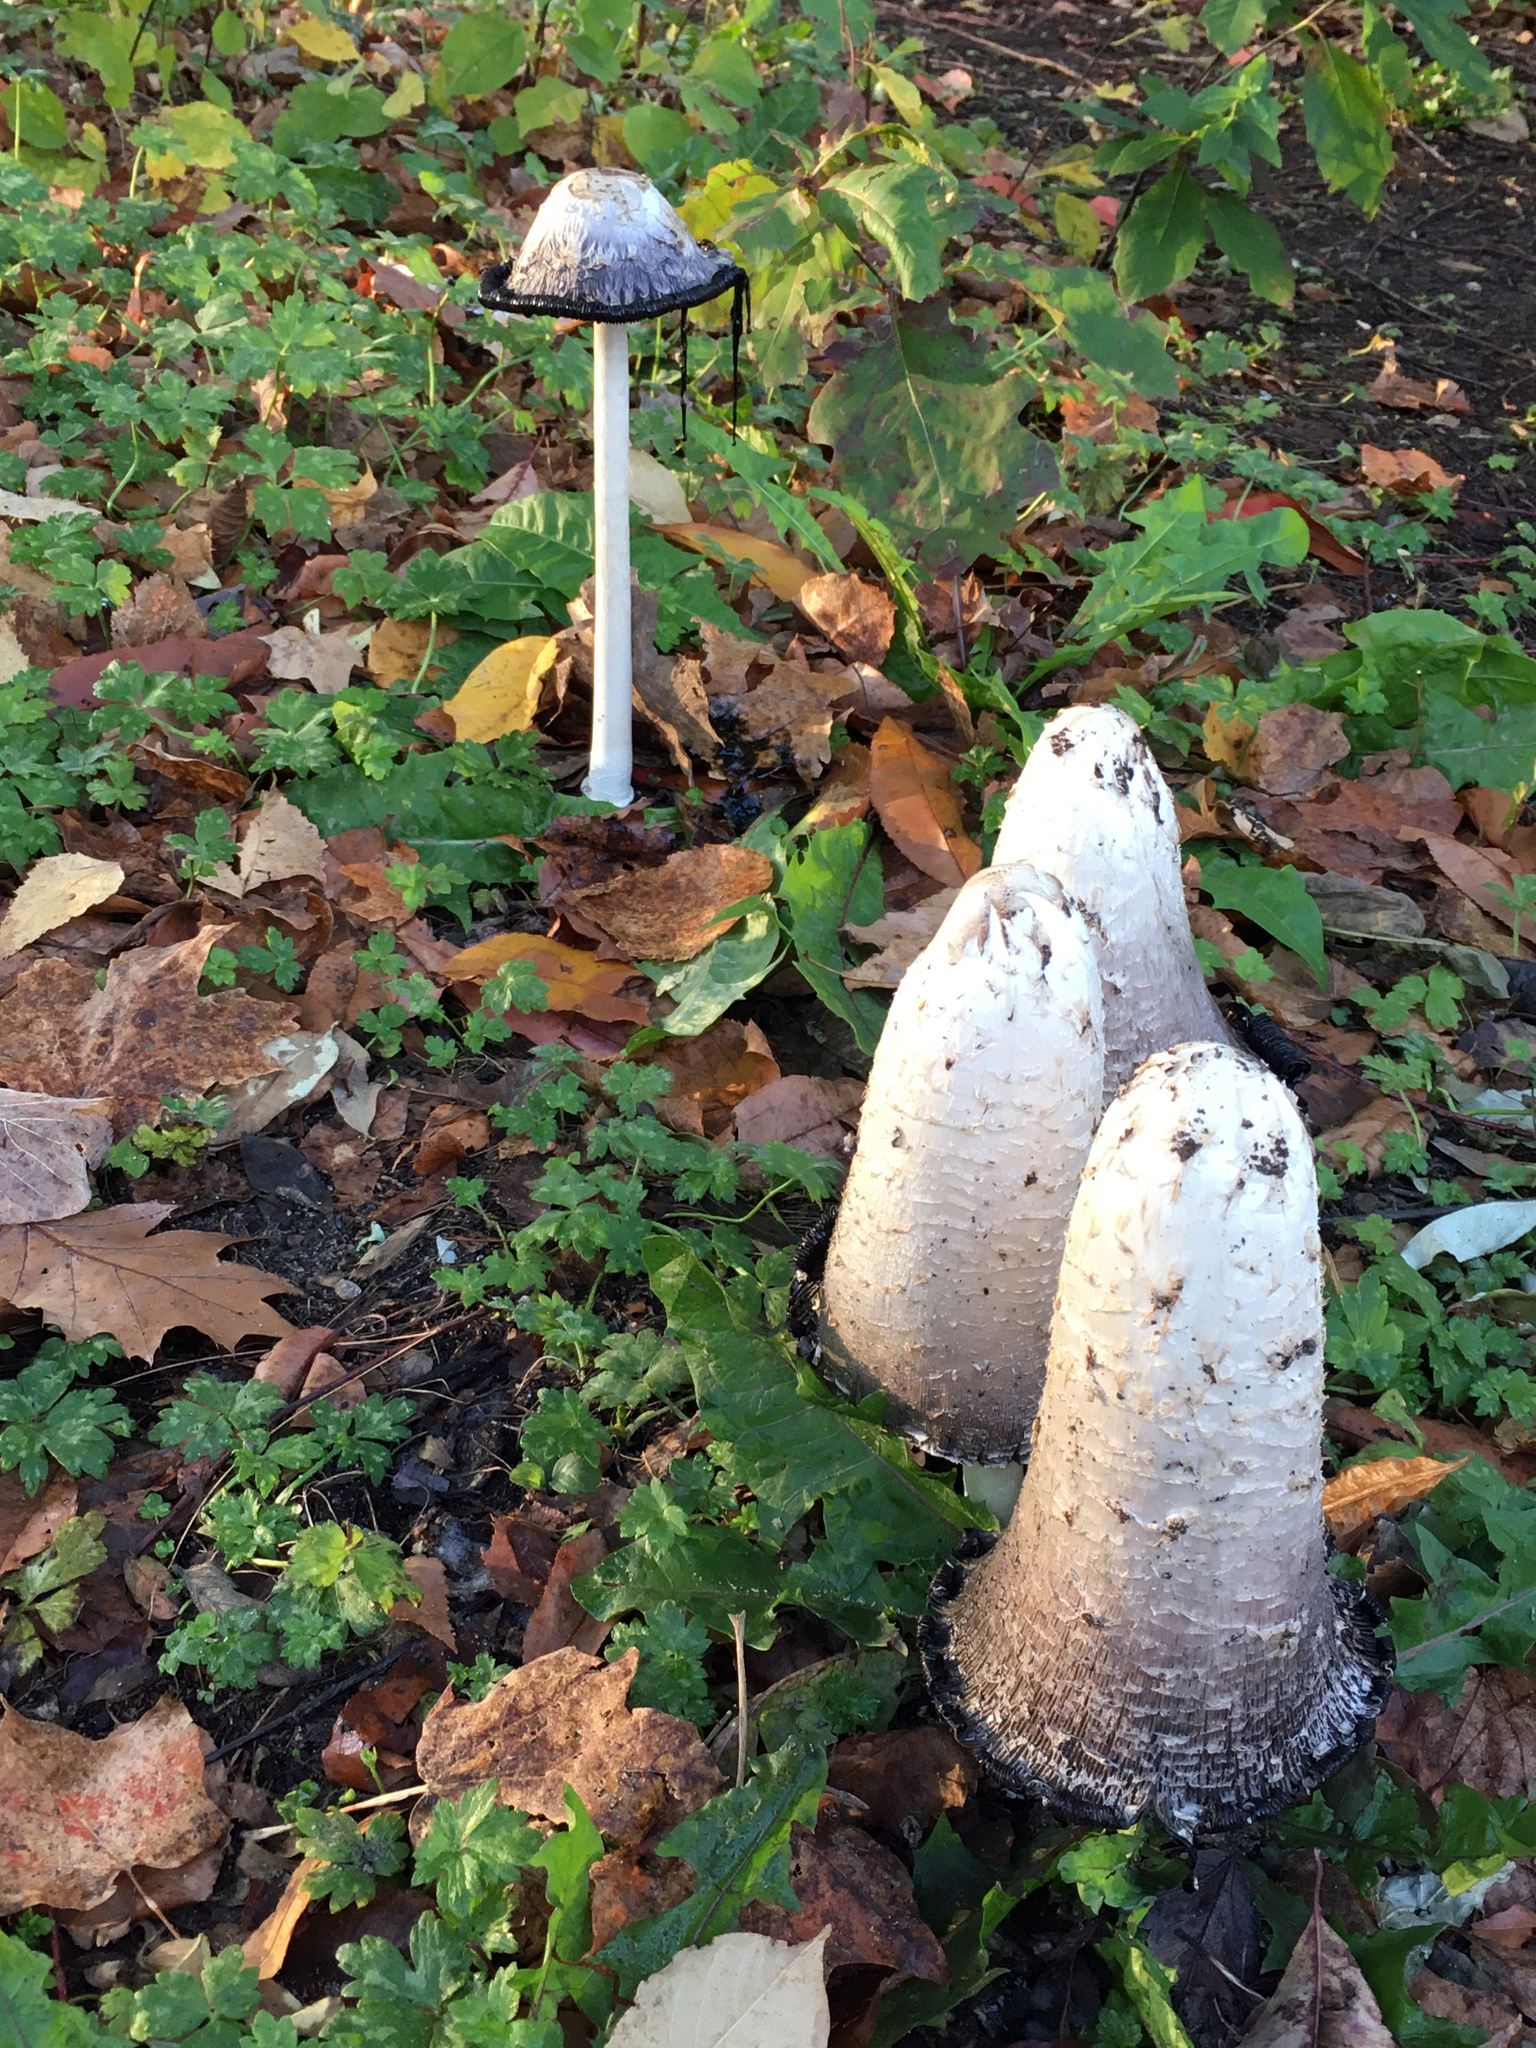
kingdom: Fungi
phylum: Basidiomycota
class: Agaricomycetes
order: Agaricales
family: Agaricaceae
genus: Coprinus
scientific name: Coprinus comatus
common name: Lawyer's wig
